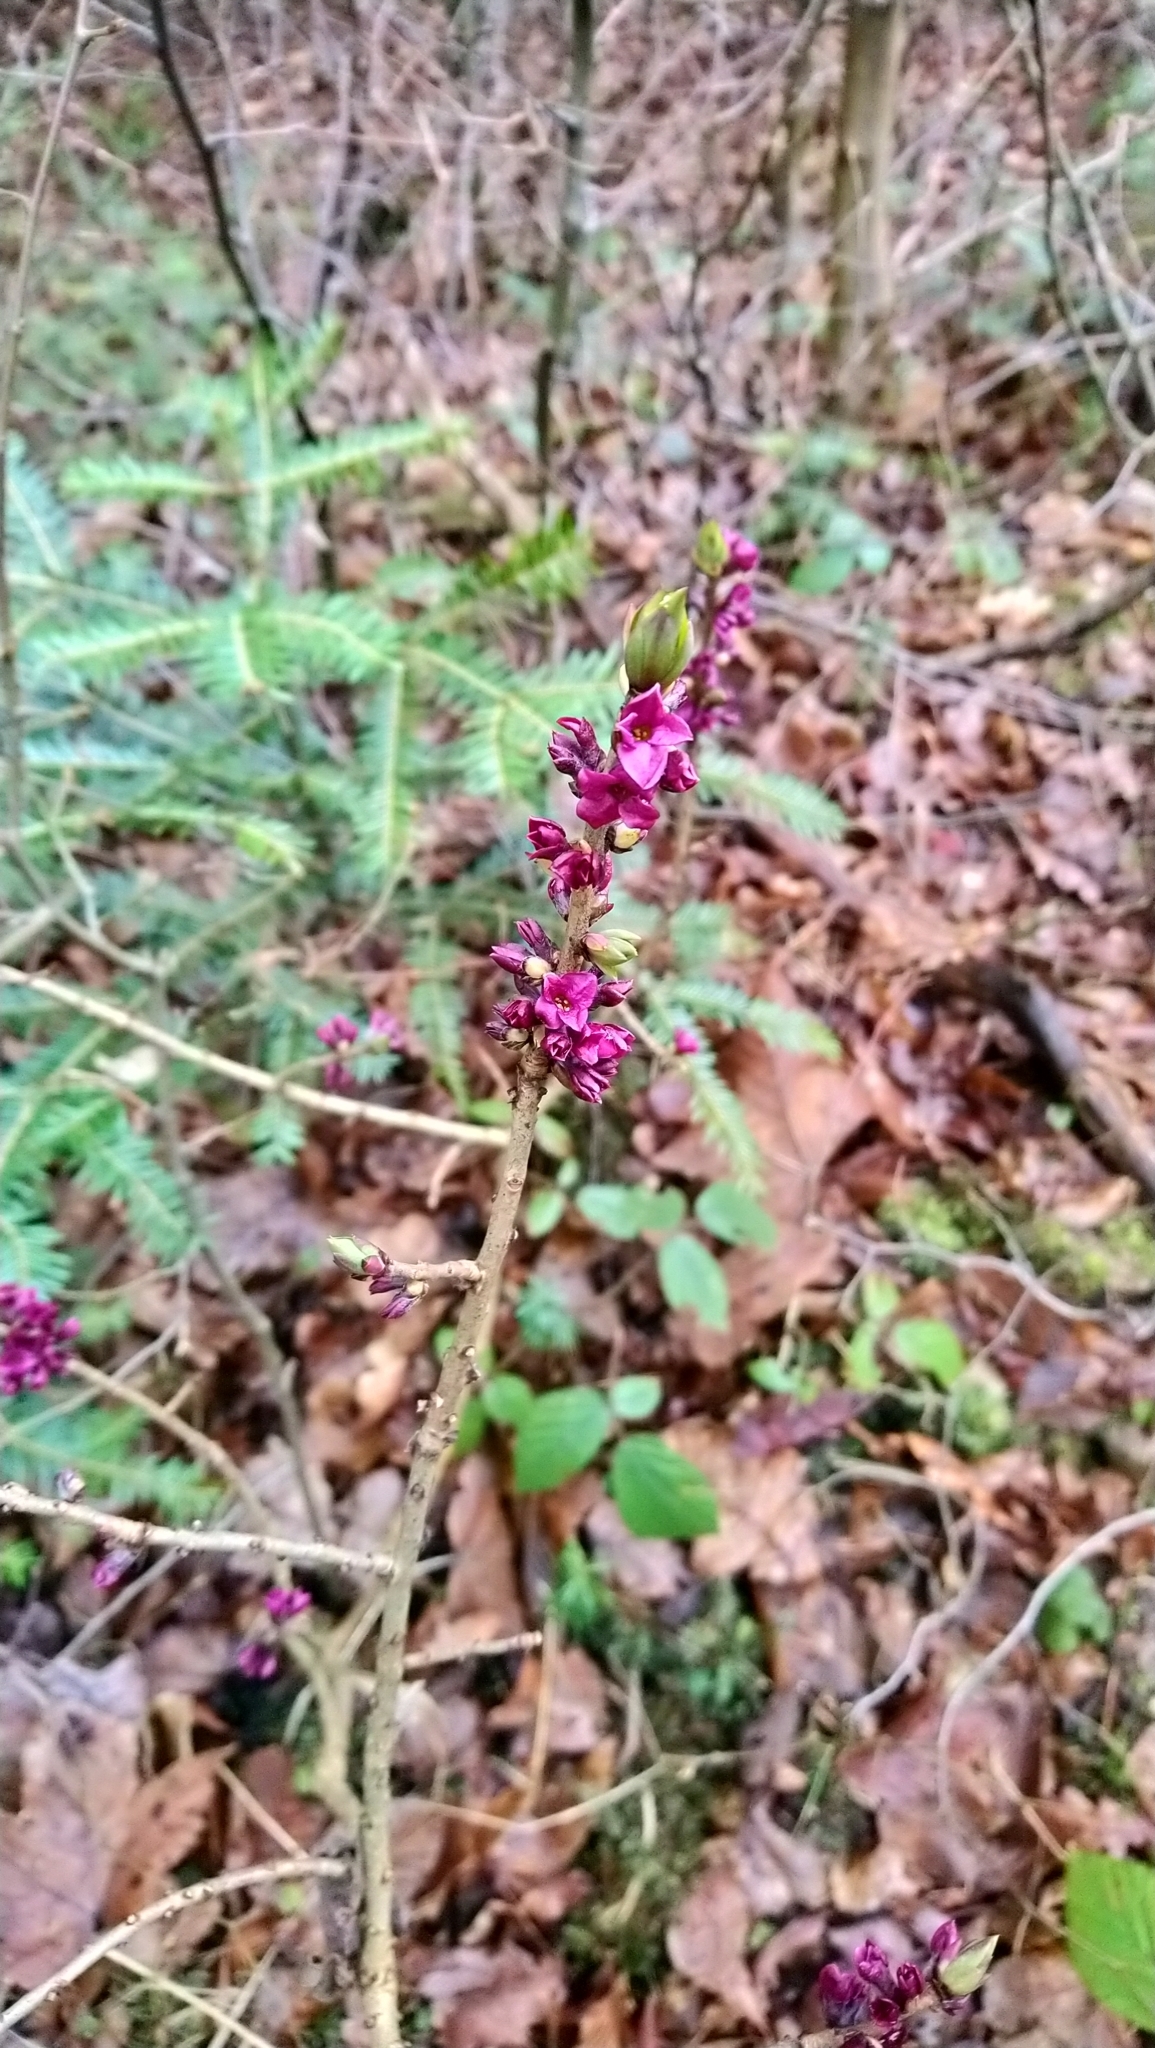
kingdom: Plantae
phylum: Tracheophyta
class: Magnoliopsida
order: Malvales
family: Thymelaeaceae
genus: Daphne
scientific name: Daphne mezereum
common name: Mezereon
